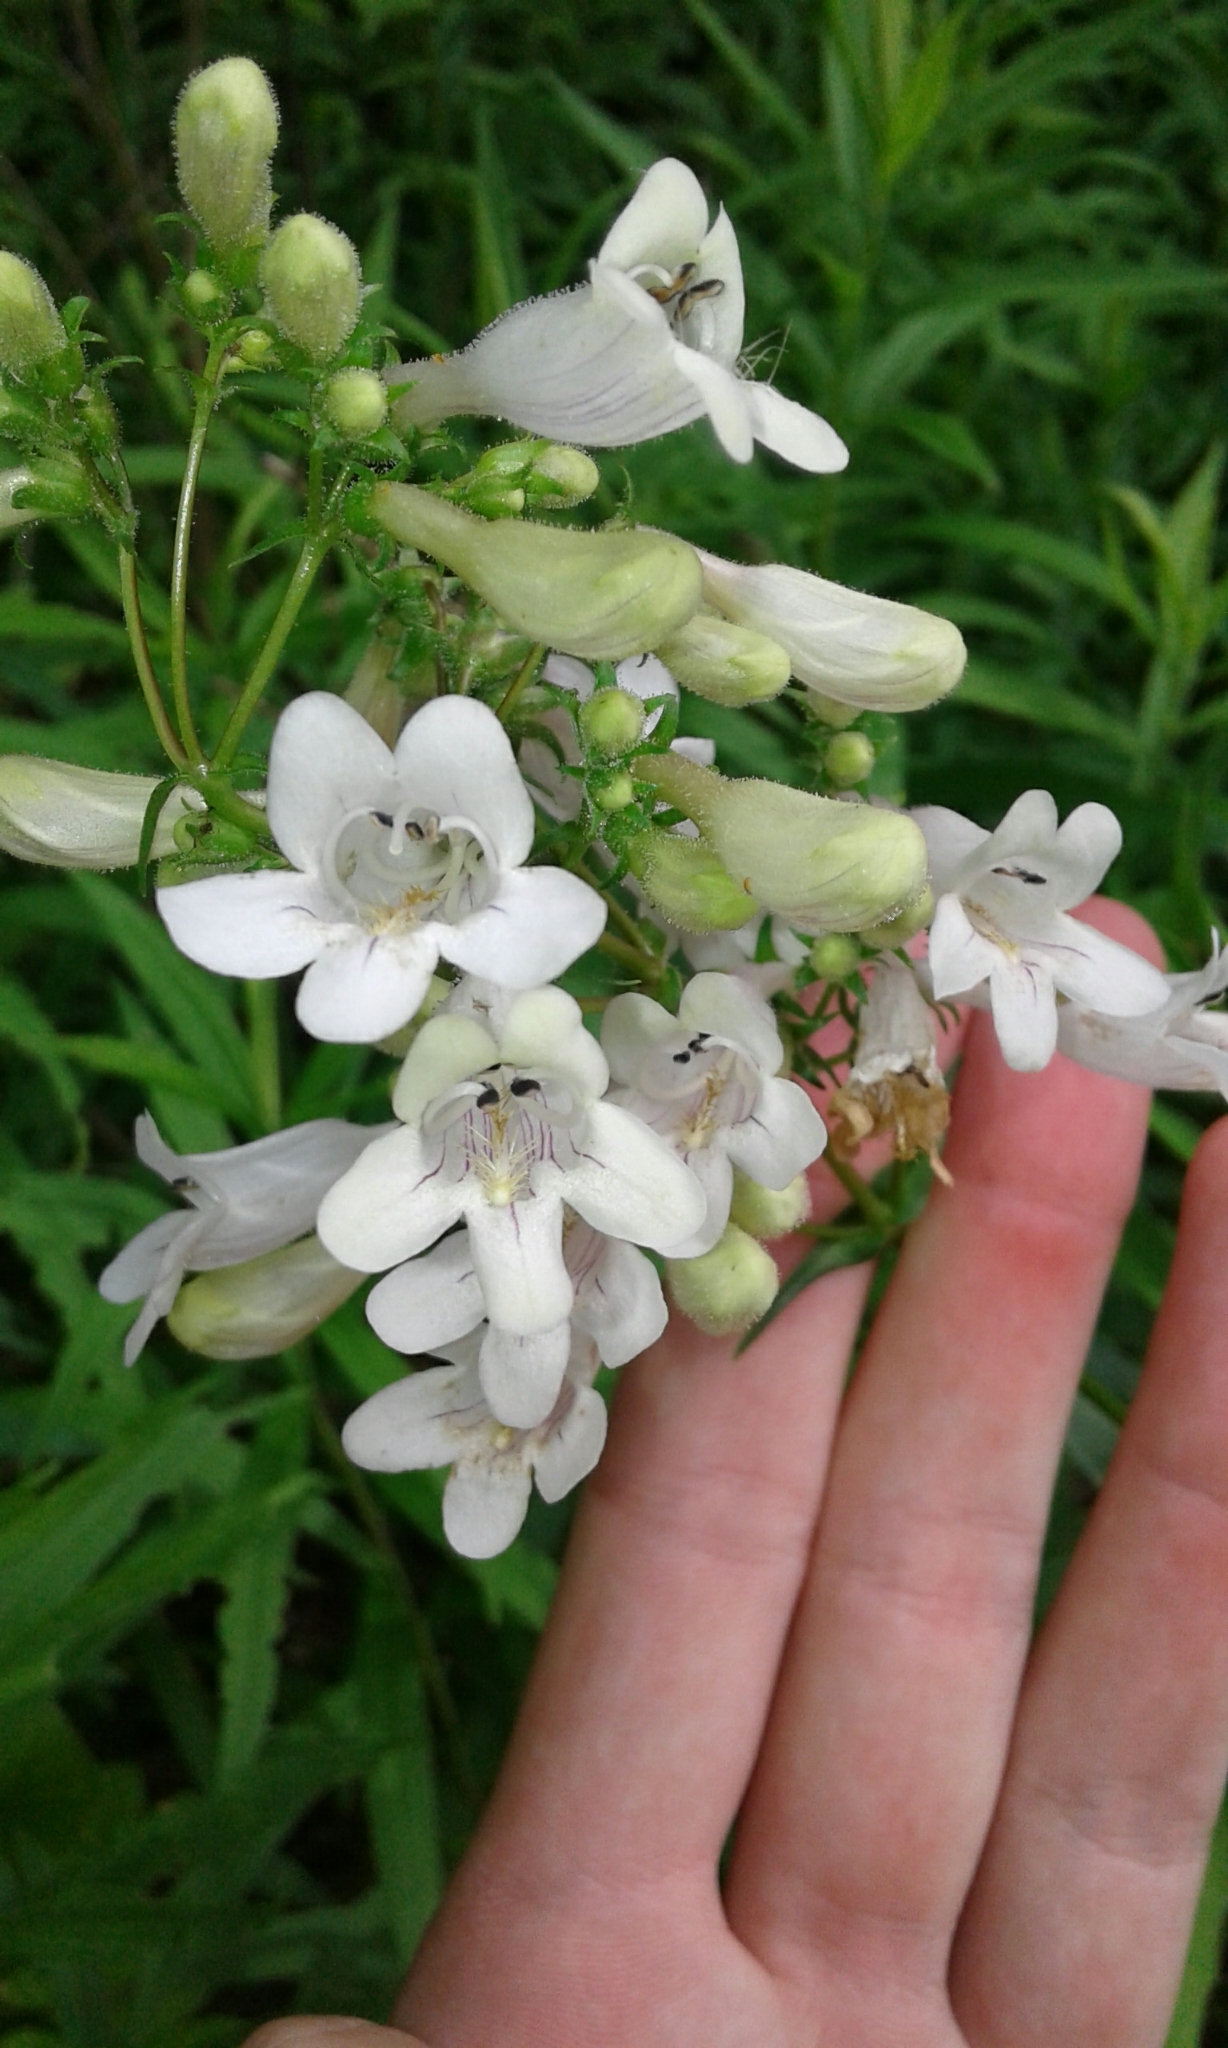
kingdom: Plantae
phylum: Tracheophyta
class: Magnoliopsida
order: Lamiales
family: Plantaginaceae
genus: Penstemon
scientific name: Penstemon digitalis
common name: Foxglove beardtongue
